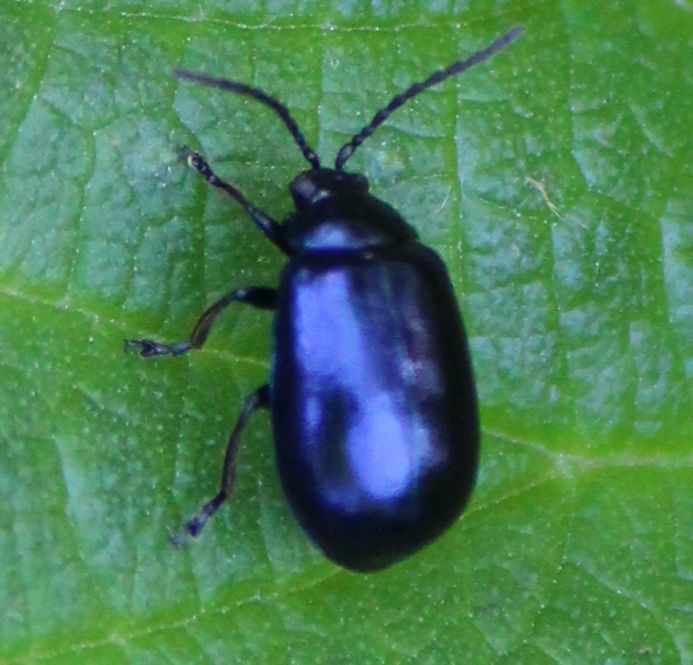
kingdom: Animalia
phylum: Arthropoda
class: Insecta
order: Coleoptera
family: Chrysomelidae
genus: Agelastica
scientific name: Agelastica alni
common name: Alder leaf beetle
